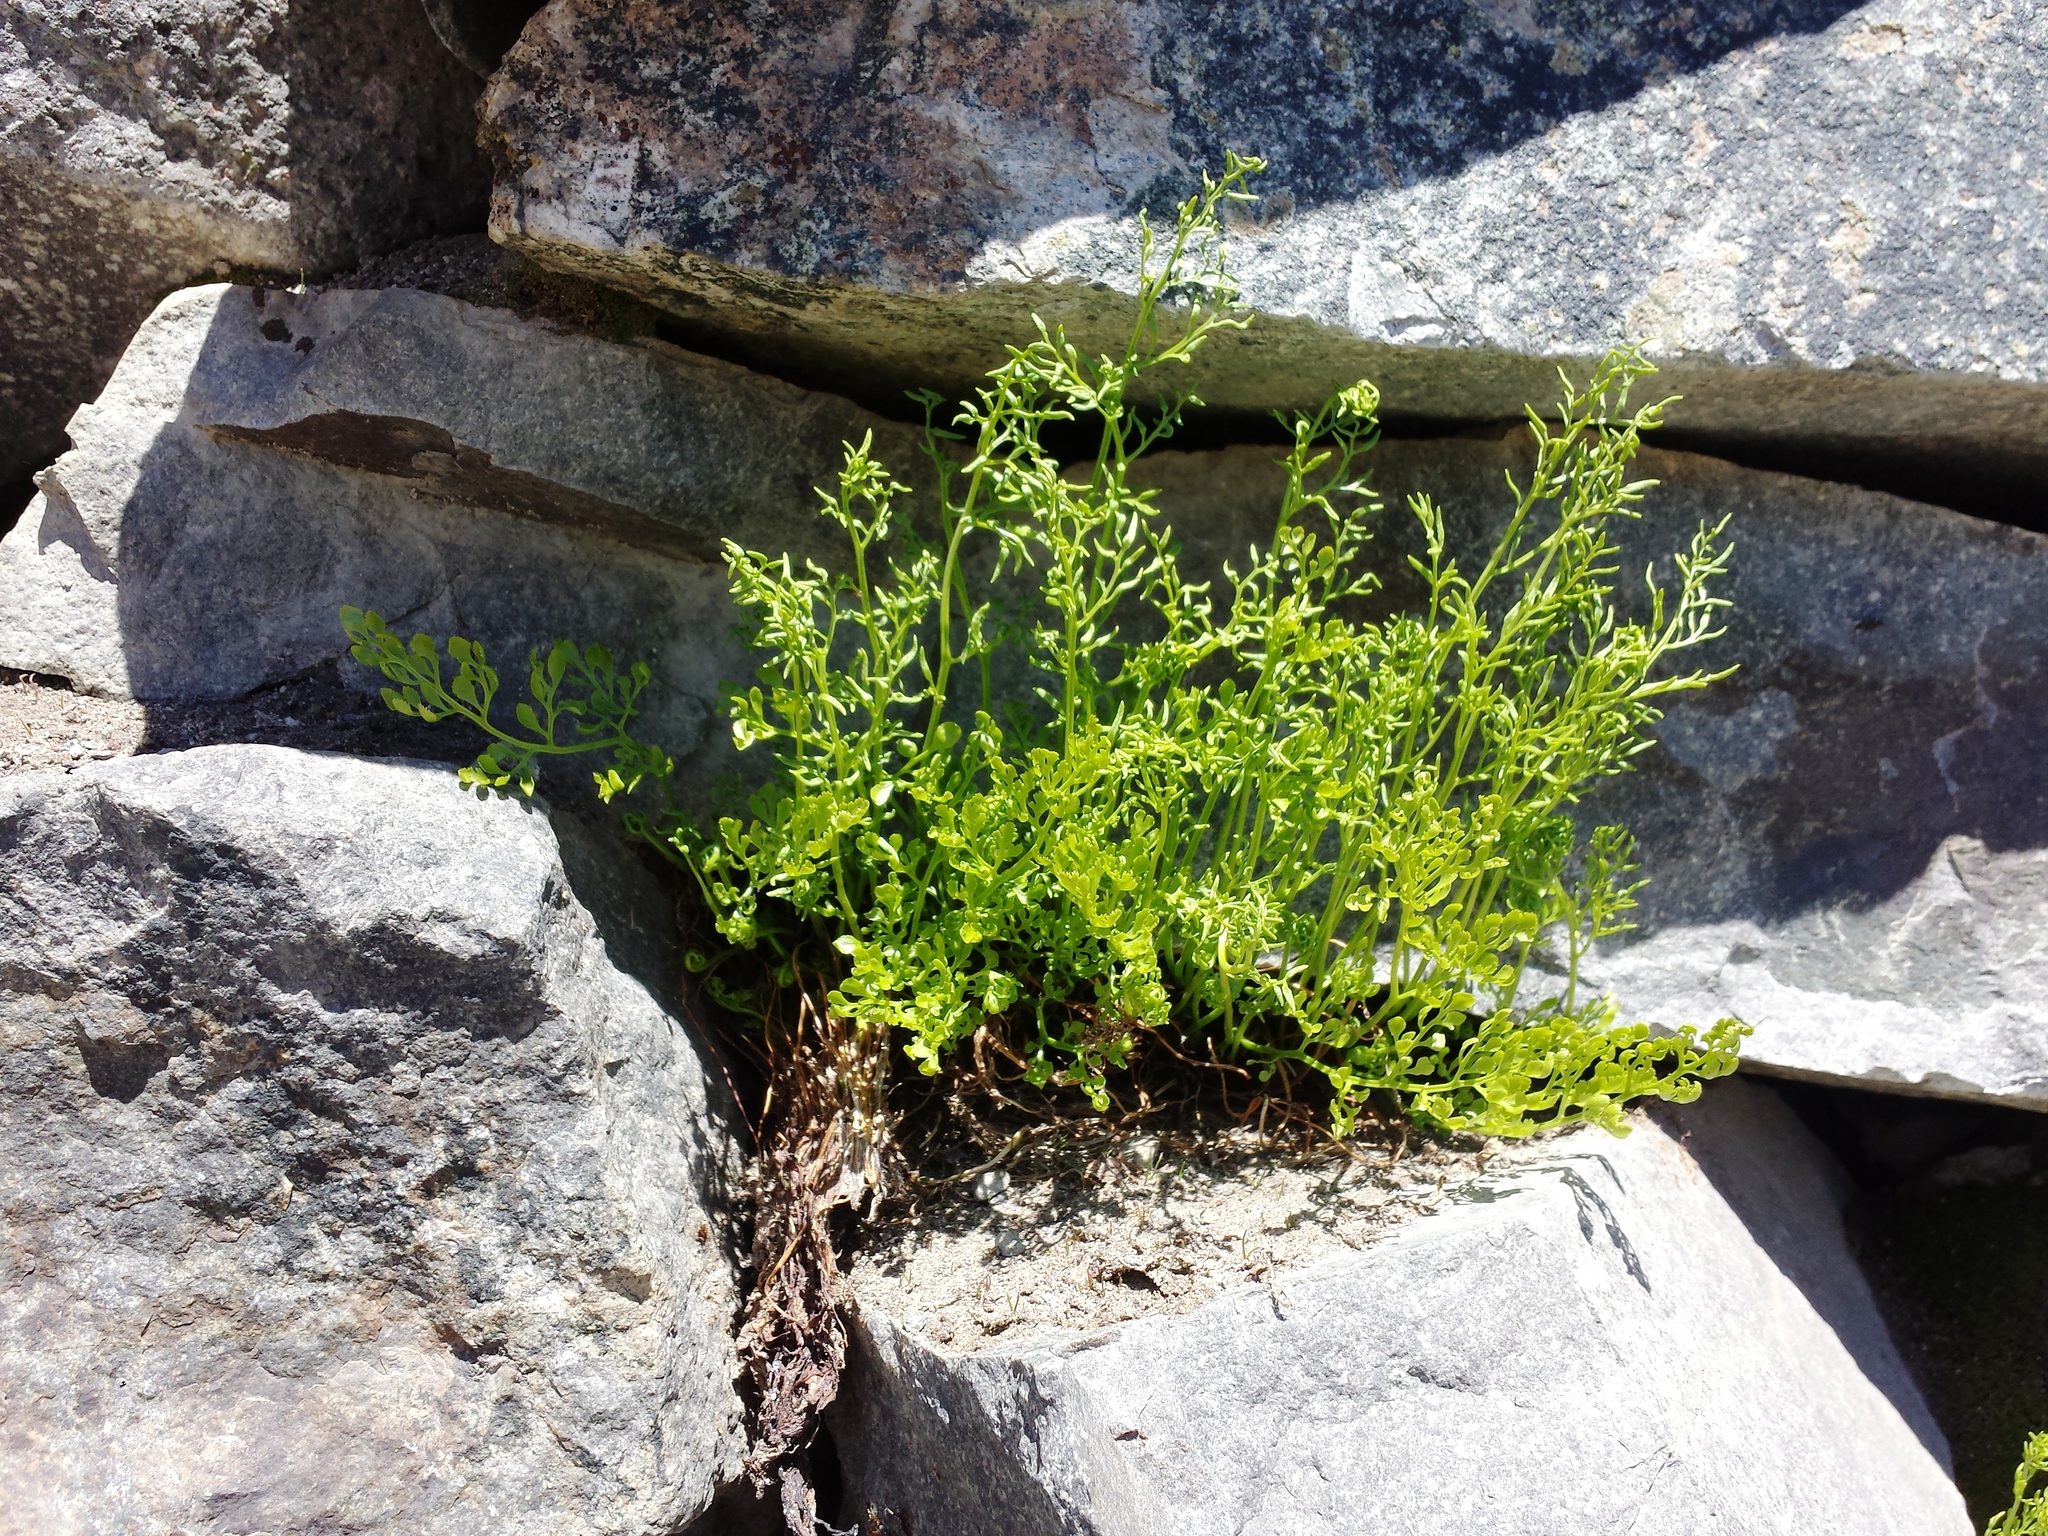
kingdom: Plantae
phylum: Tracheophyta
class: Polypodiopsida
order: Polypodiales
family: Pteridaceae
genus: Cryptogramma
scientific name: Cryptogramma cascadensis
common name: Cascade parsley fern
